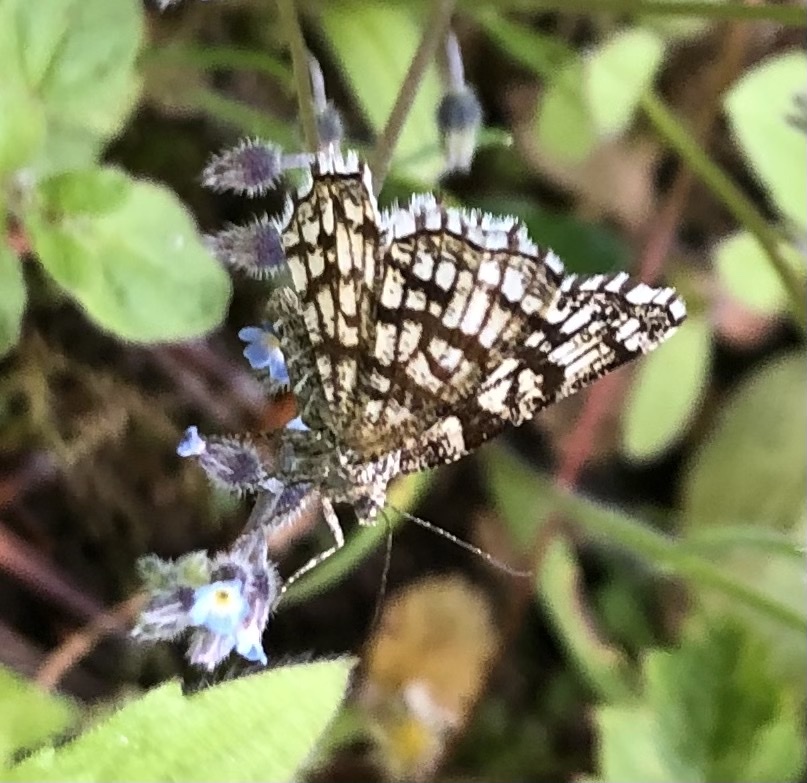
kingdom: Animalia
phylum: Arthropoda
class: Insecta
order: Lepidoptera
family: Geometridae
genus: Chiasmia
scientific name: Chiasmia clathrata
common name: Latticed heath
